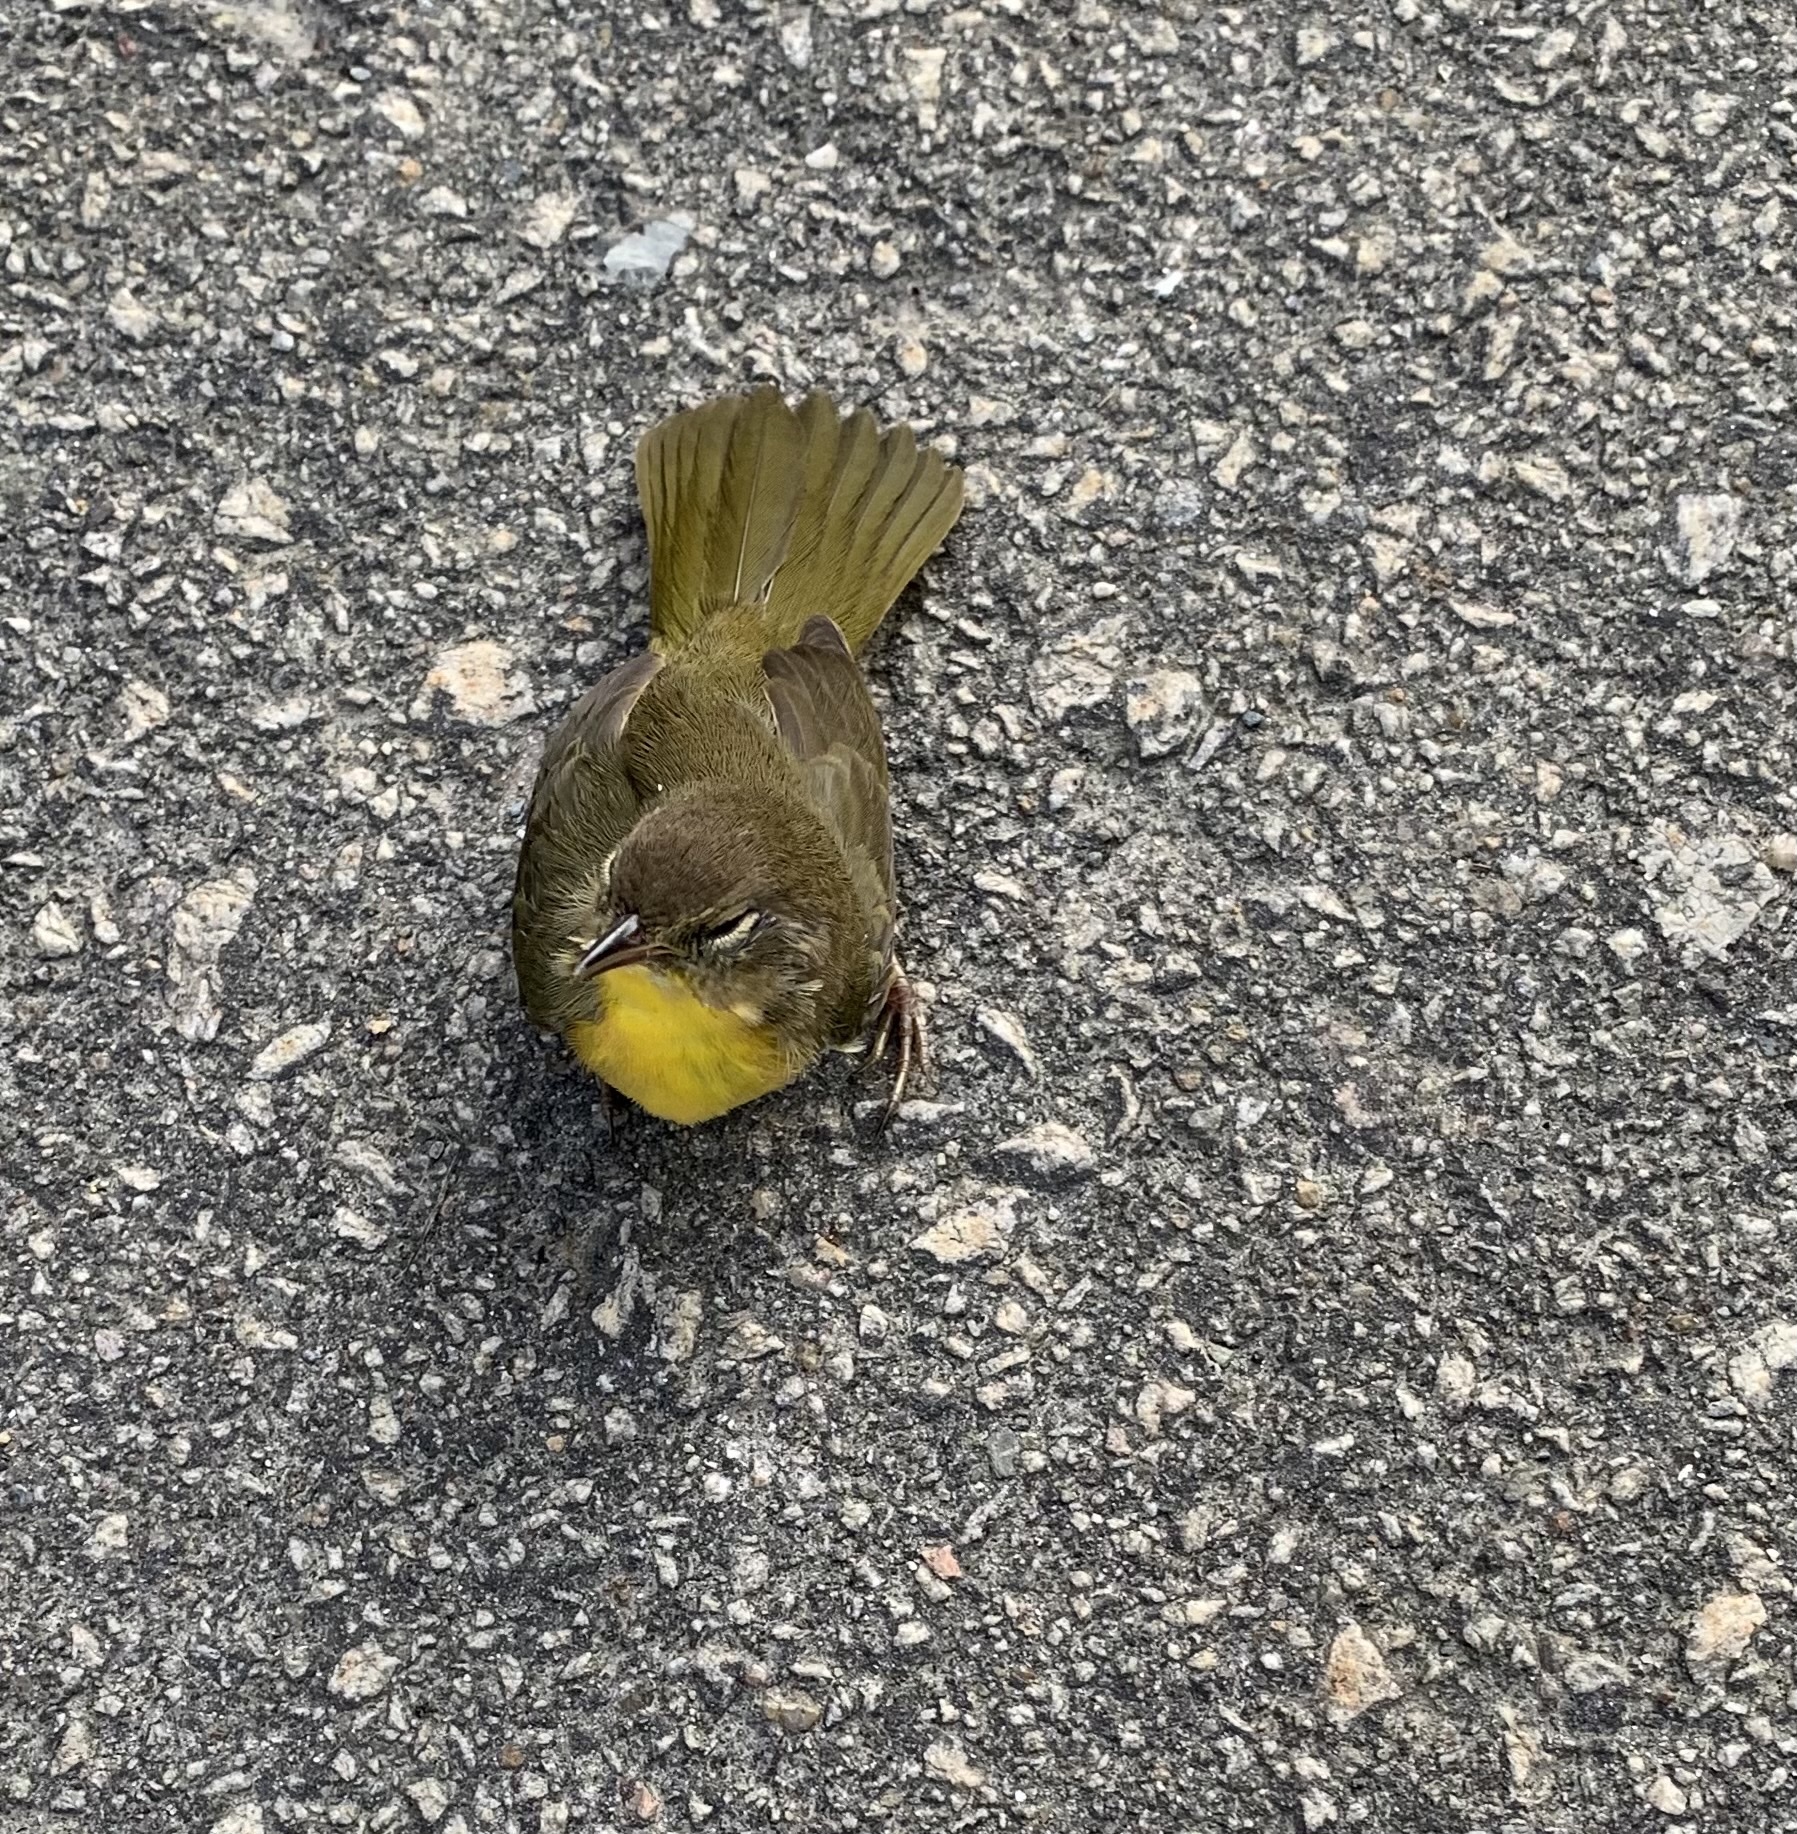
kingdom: Animalia
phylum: Chordata
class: Aves
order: Passeriformes
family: Parulidae
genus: Geothlypis
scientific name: Geothlypis trichas
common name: Common yellowthroat
